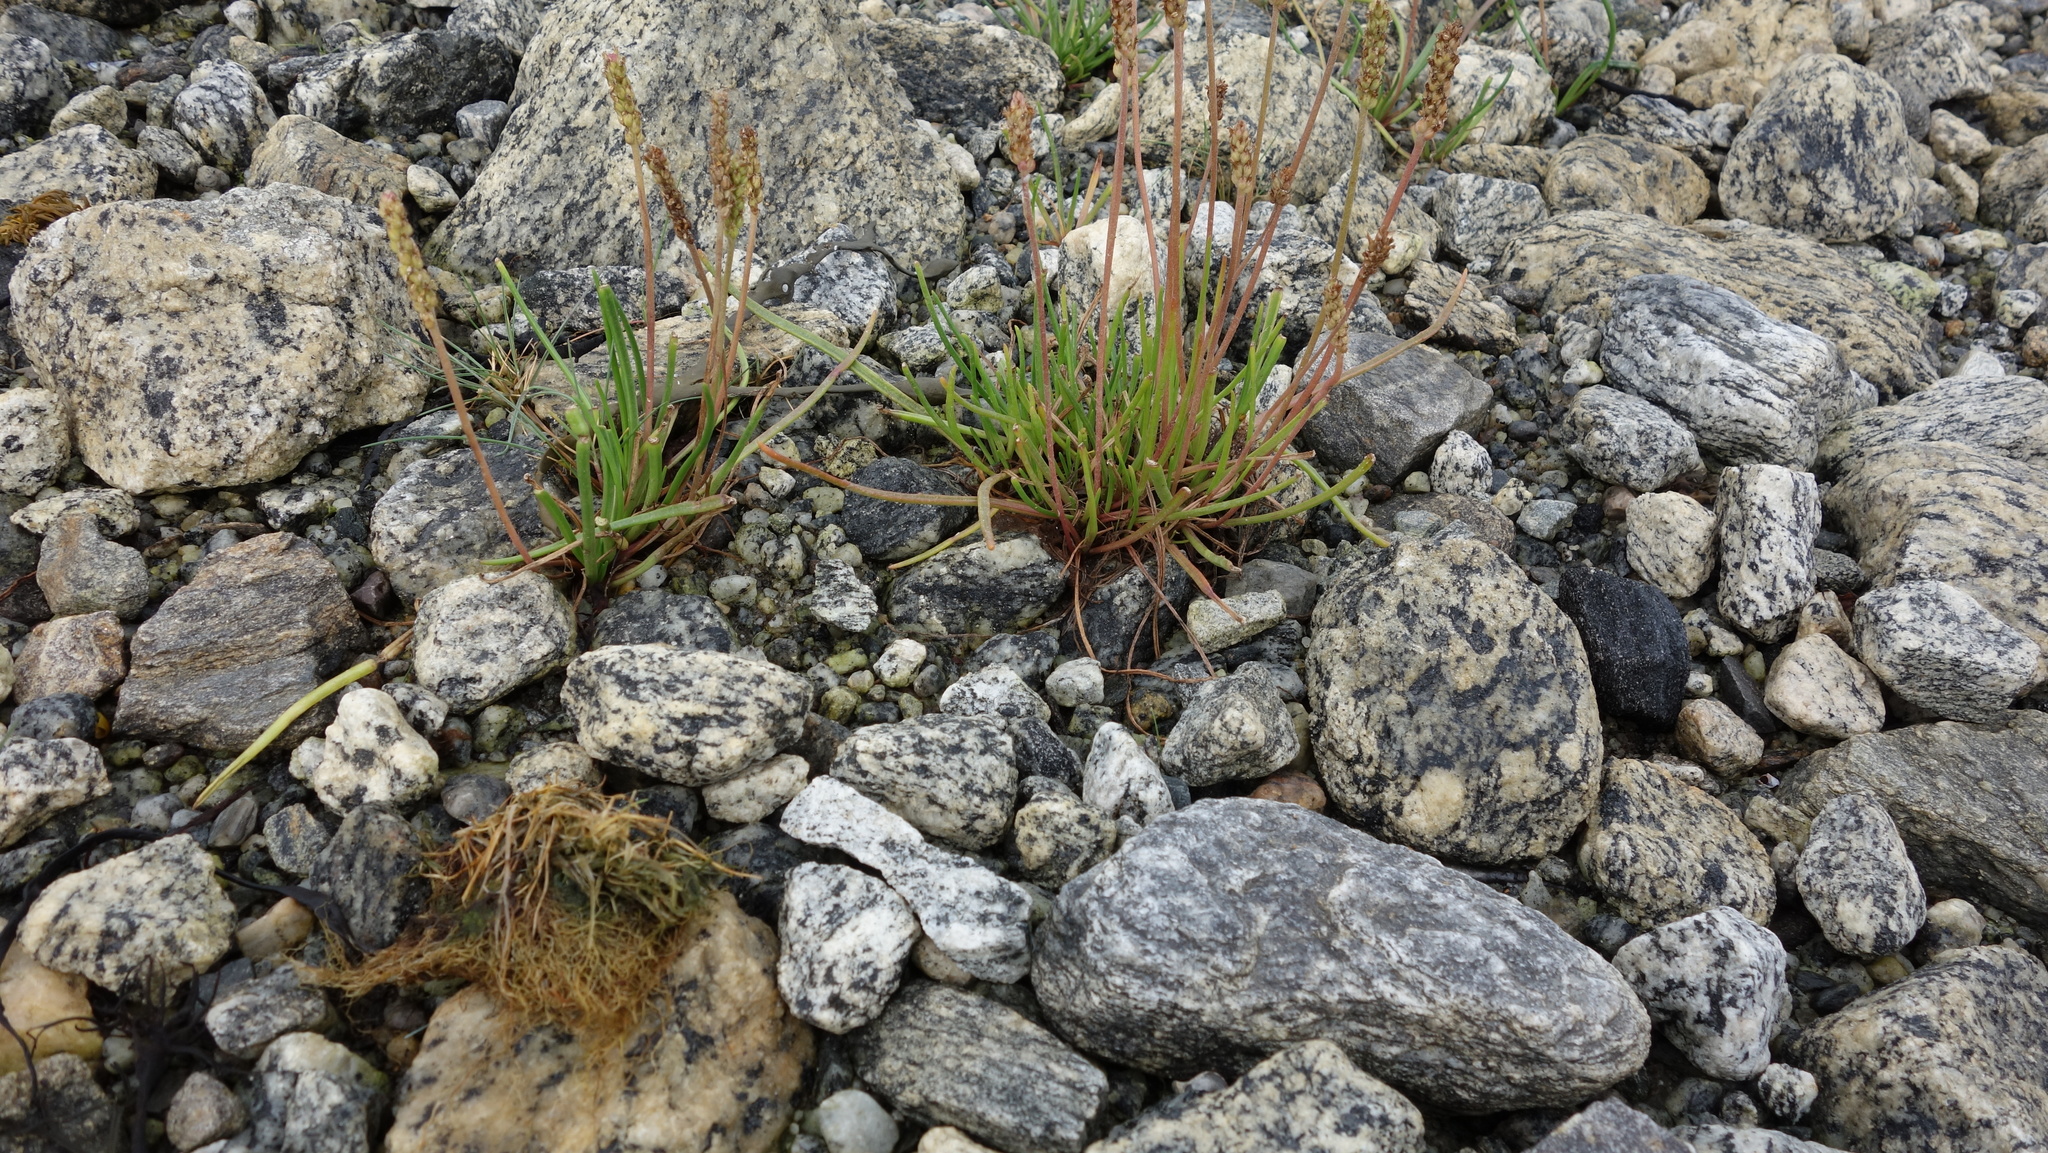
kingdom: Plantae
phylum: Tracheophyta
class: Magnoliopsida
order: Lamiales
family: Plantaginaceae
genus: Plantago
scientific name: Plantago maritima
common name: Sea plantain
